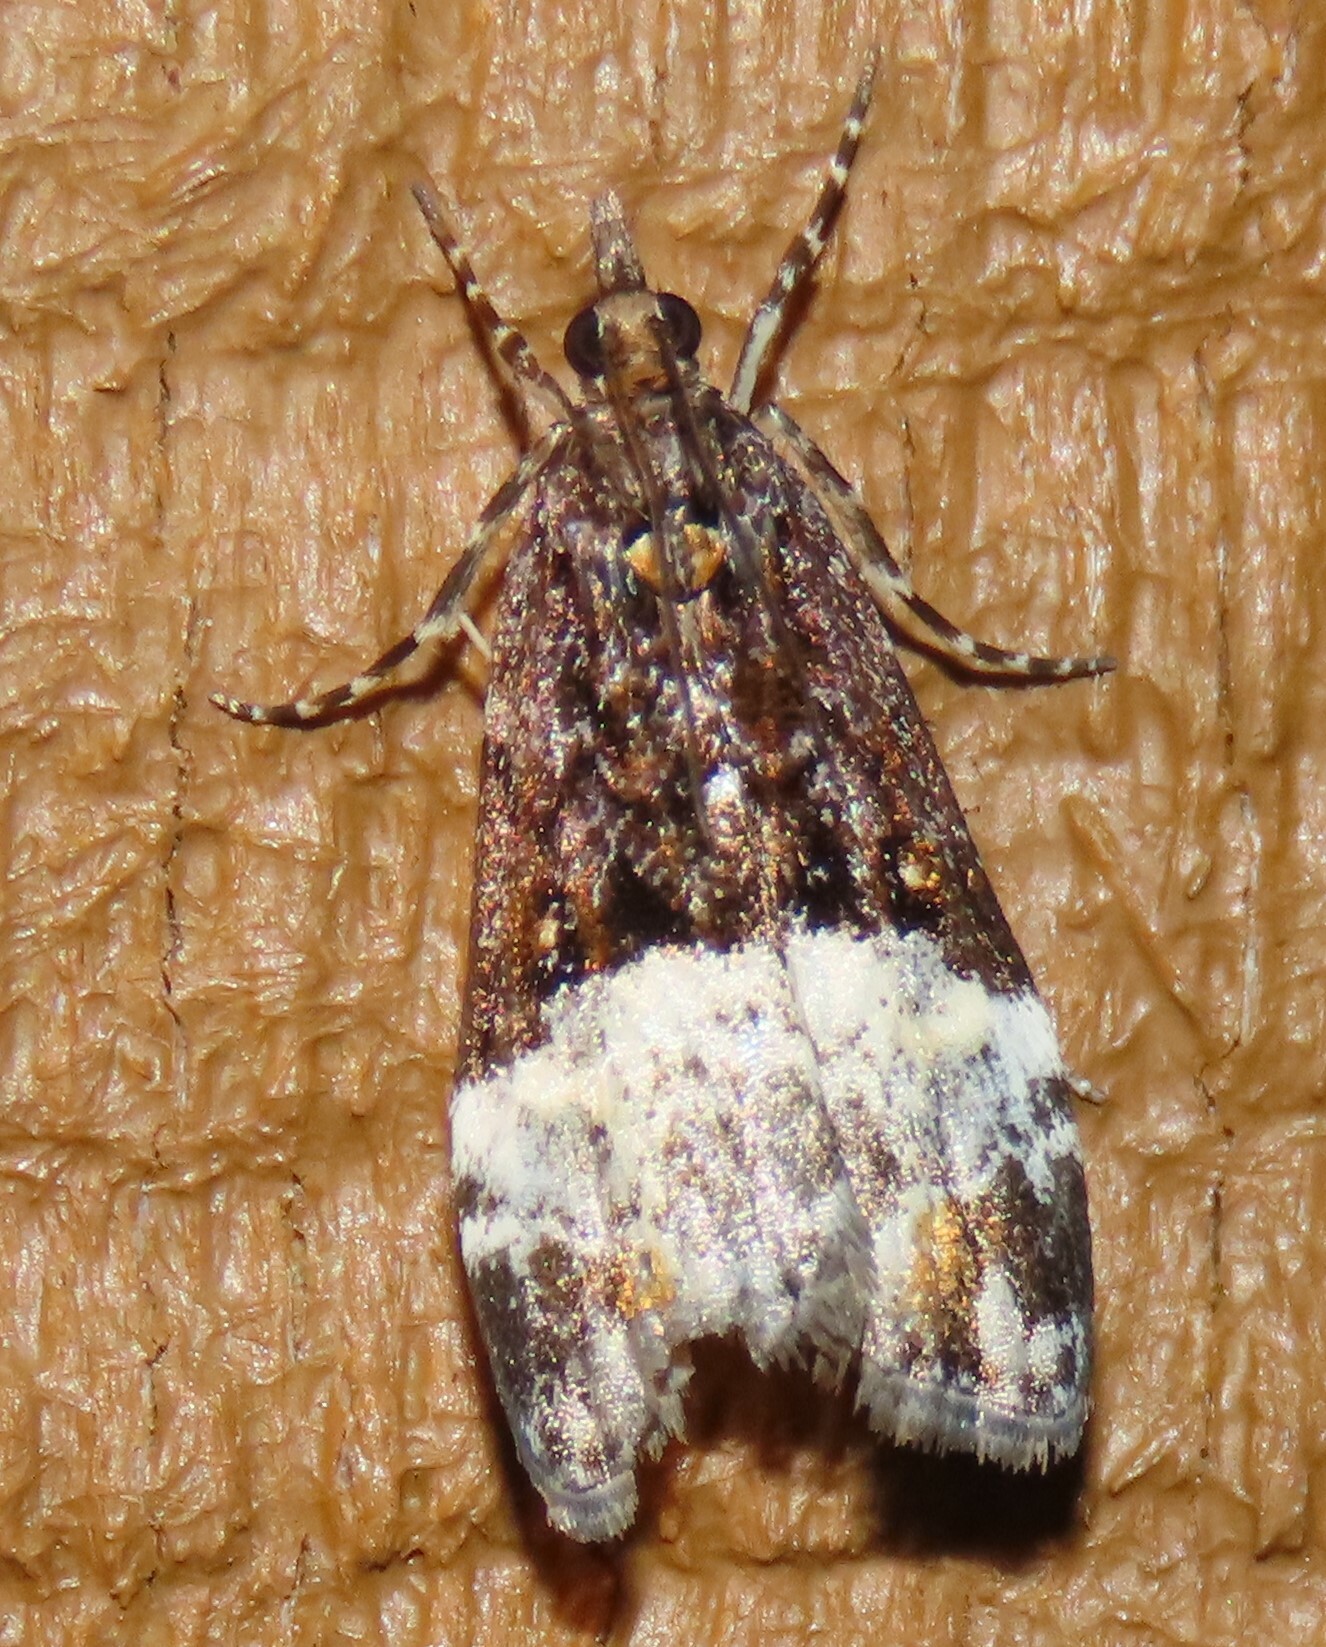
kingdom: Animalia
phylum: Arthropoda
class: Insecta
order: Lepidoptera
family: Crambidae
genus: Scoparia
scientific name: Scoparia minusculalis
